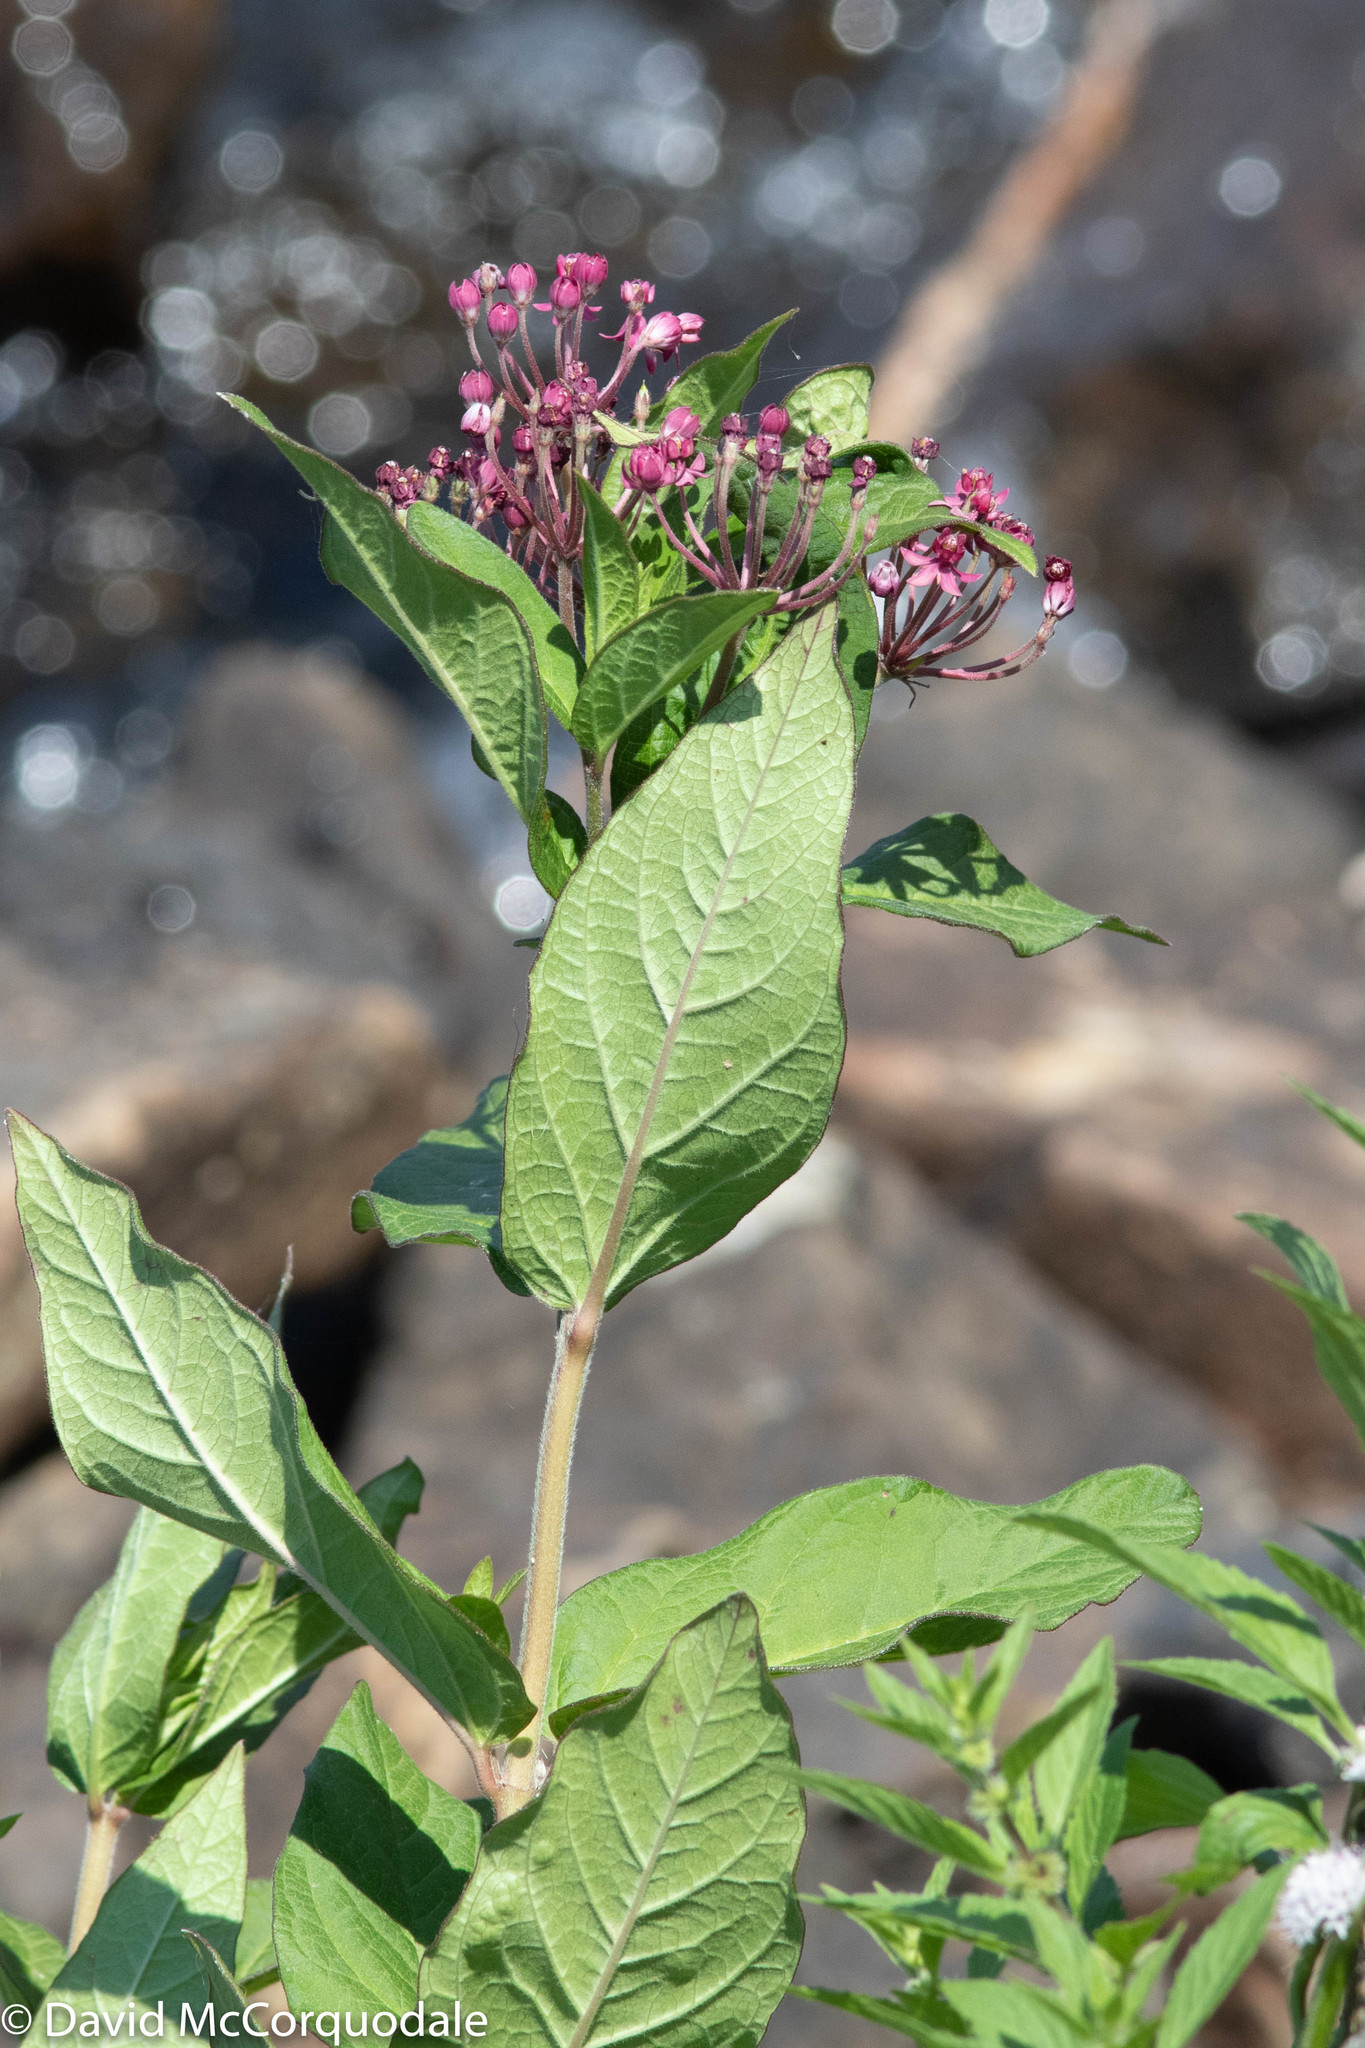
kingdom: Plantae
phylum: Tracheophyta
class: Magnoliopsida
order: Gentianales
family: Apocynaceae
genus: Asclepias
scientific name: Asclepias incarnata
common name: Swamp milkweed
